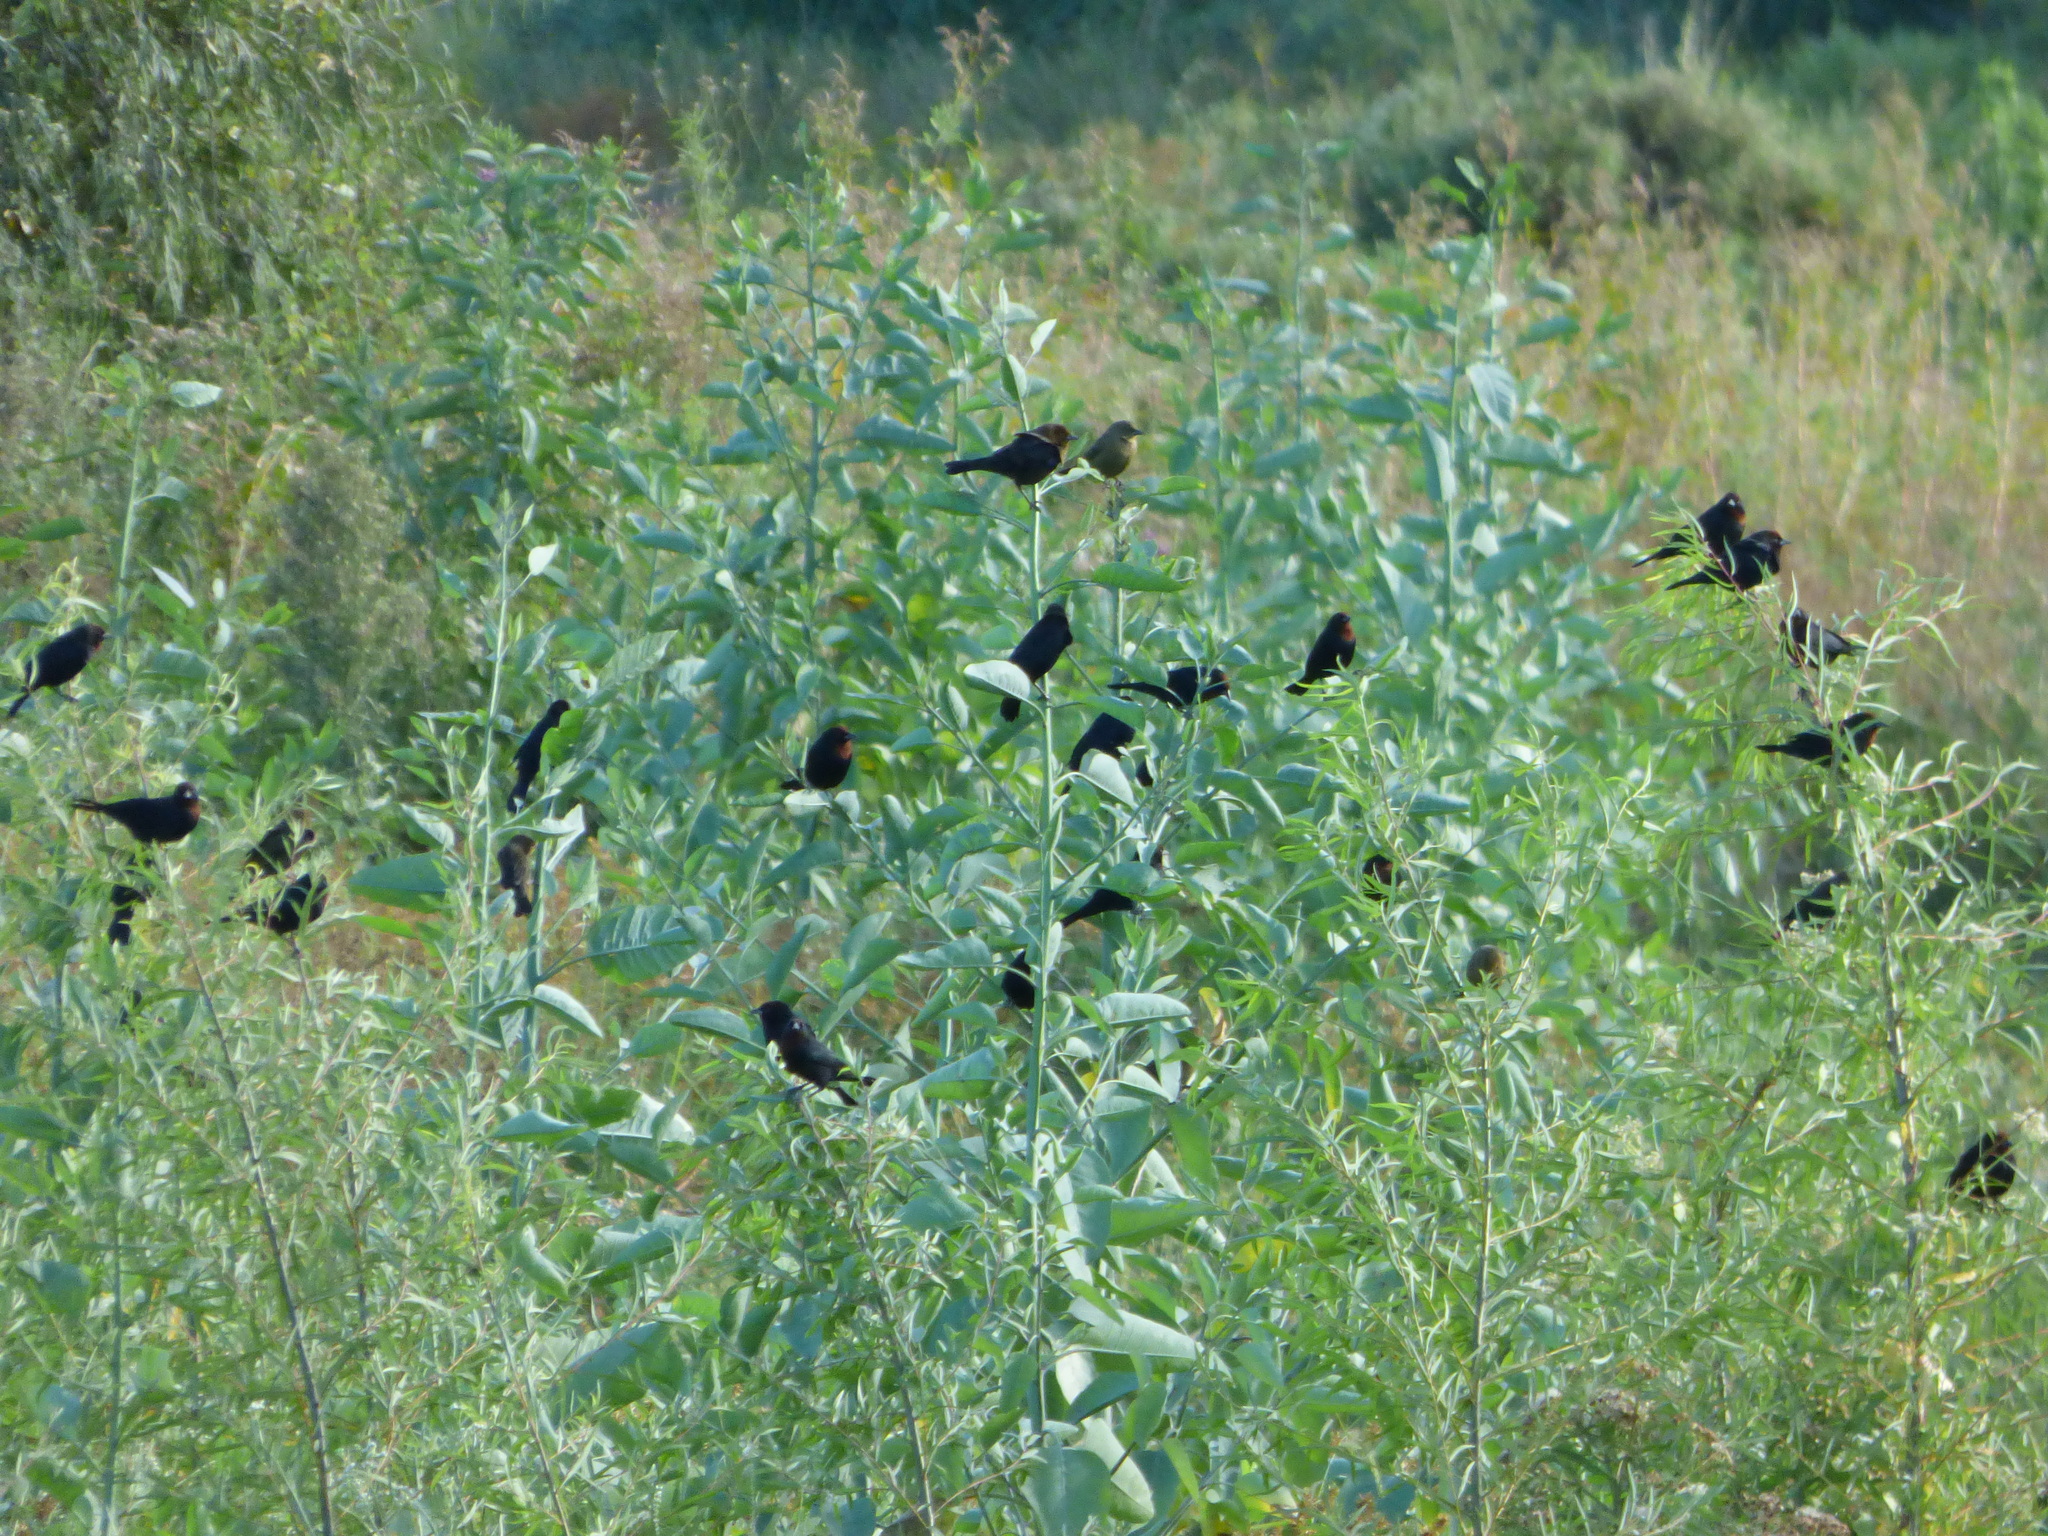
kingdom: Animalia
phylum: Chordata
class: Aves
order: Passeriformes
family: Icteridae
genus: Chrysomus
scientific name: Chrysomus ruficapillus
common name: Chestnut-capped blackbird
